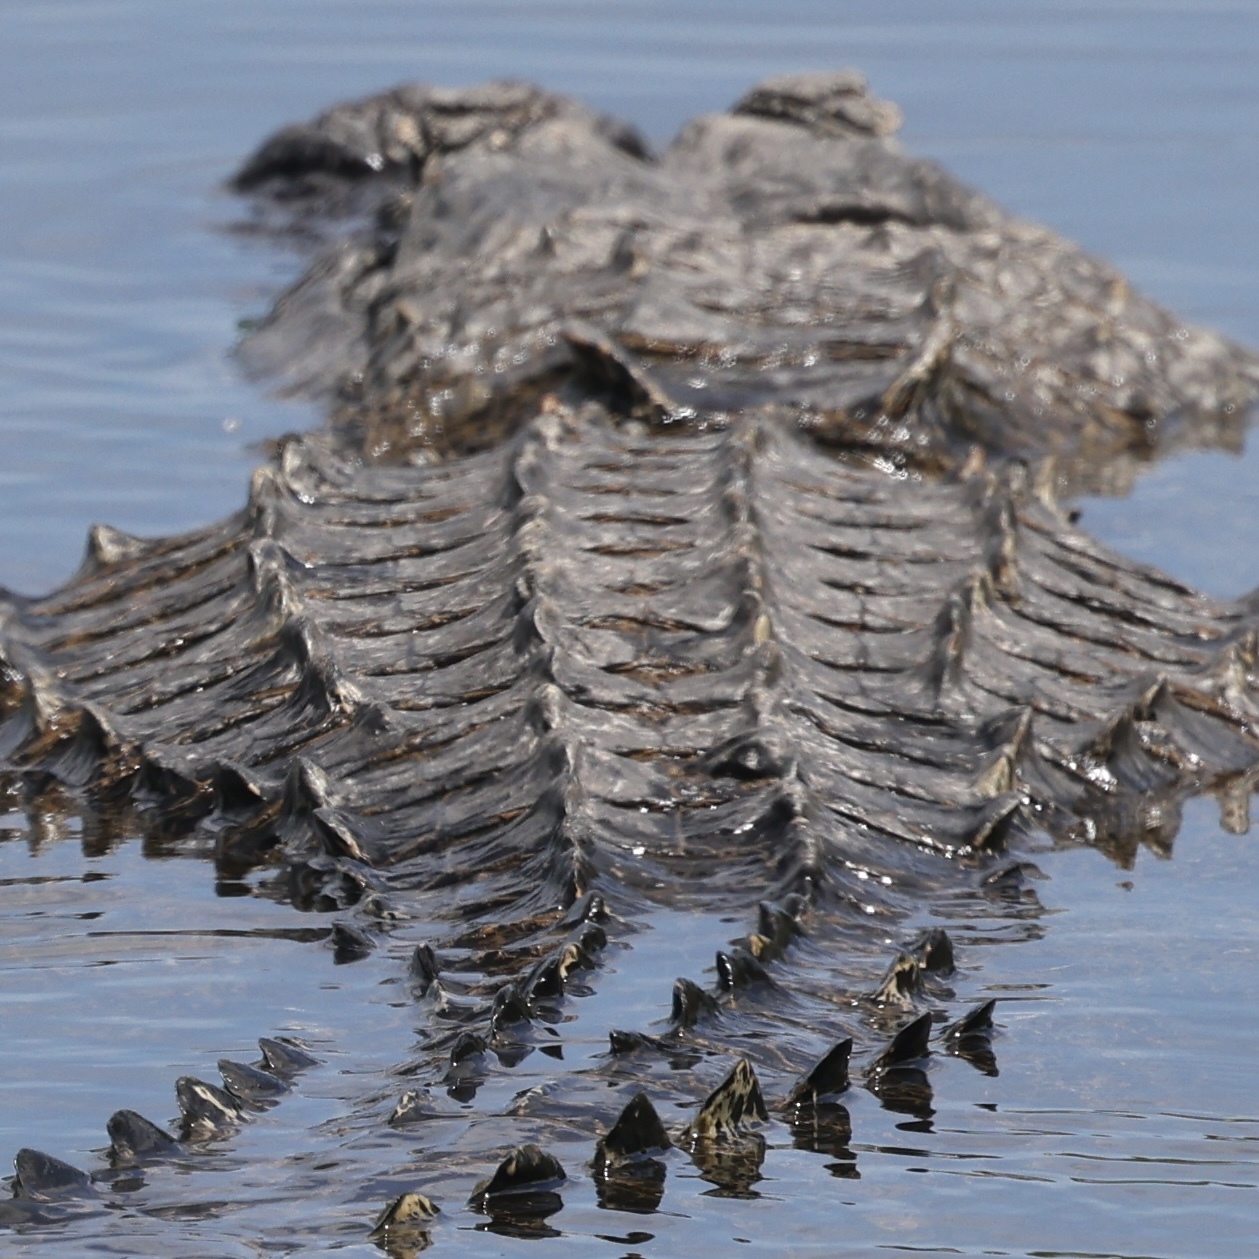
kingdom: Animalia
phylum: Chordata
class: Crocodylia
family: Alligatoridae
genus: Alligator
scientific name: Alligator mississippiensis
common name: American alligator
